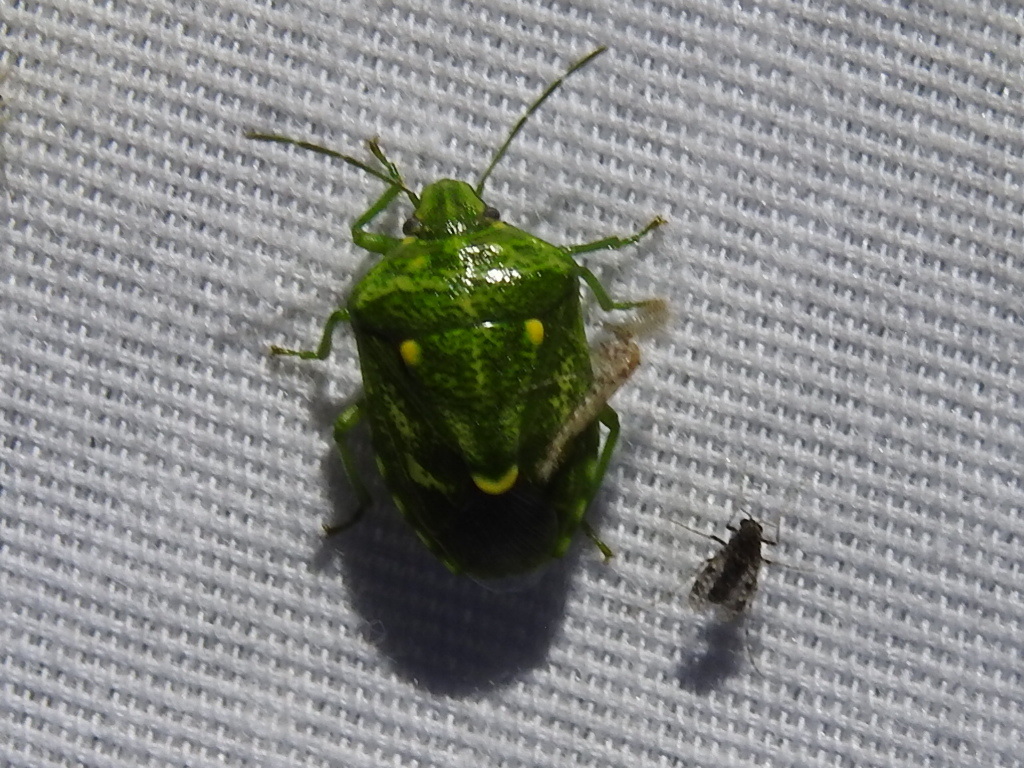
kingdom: Animalia
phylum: Arthropoda
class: Insecta
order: Hemiptera
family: Pentatomidae
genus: Banasa
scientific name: Banasa euchlora
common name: Cedar berry bug
